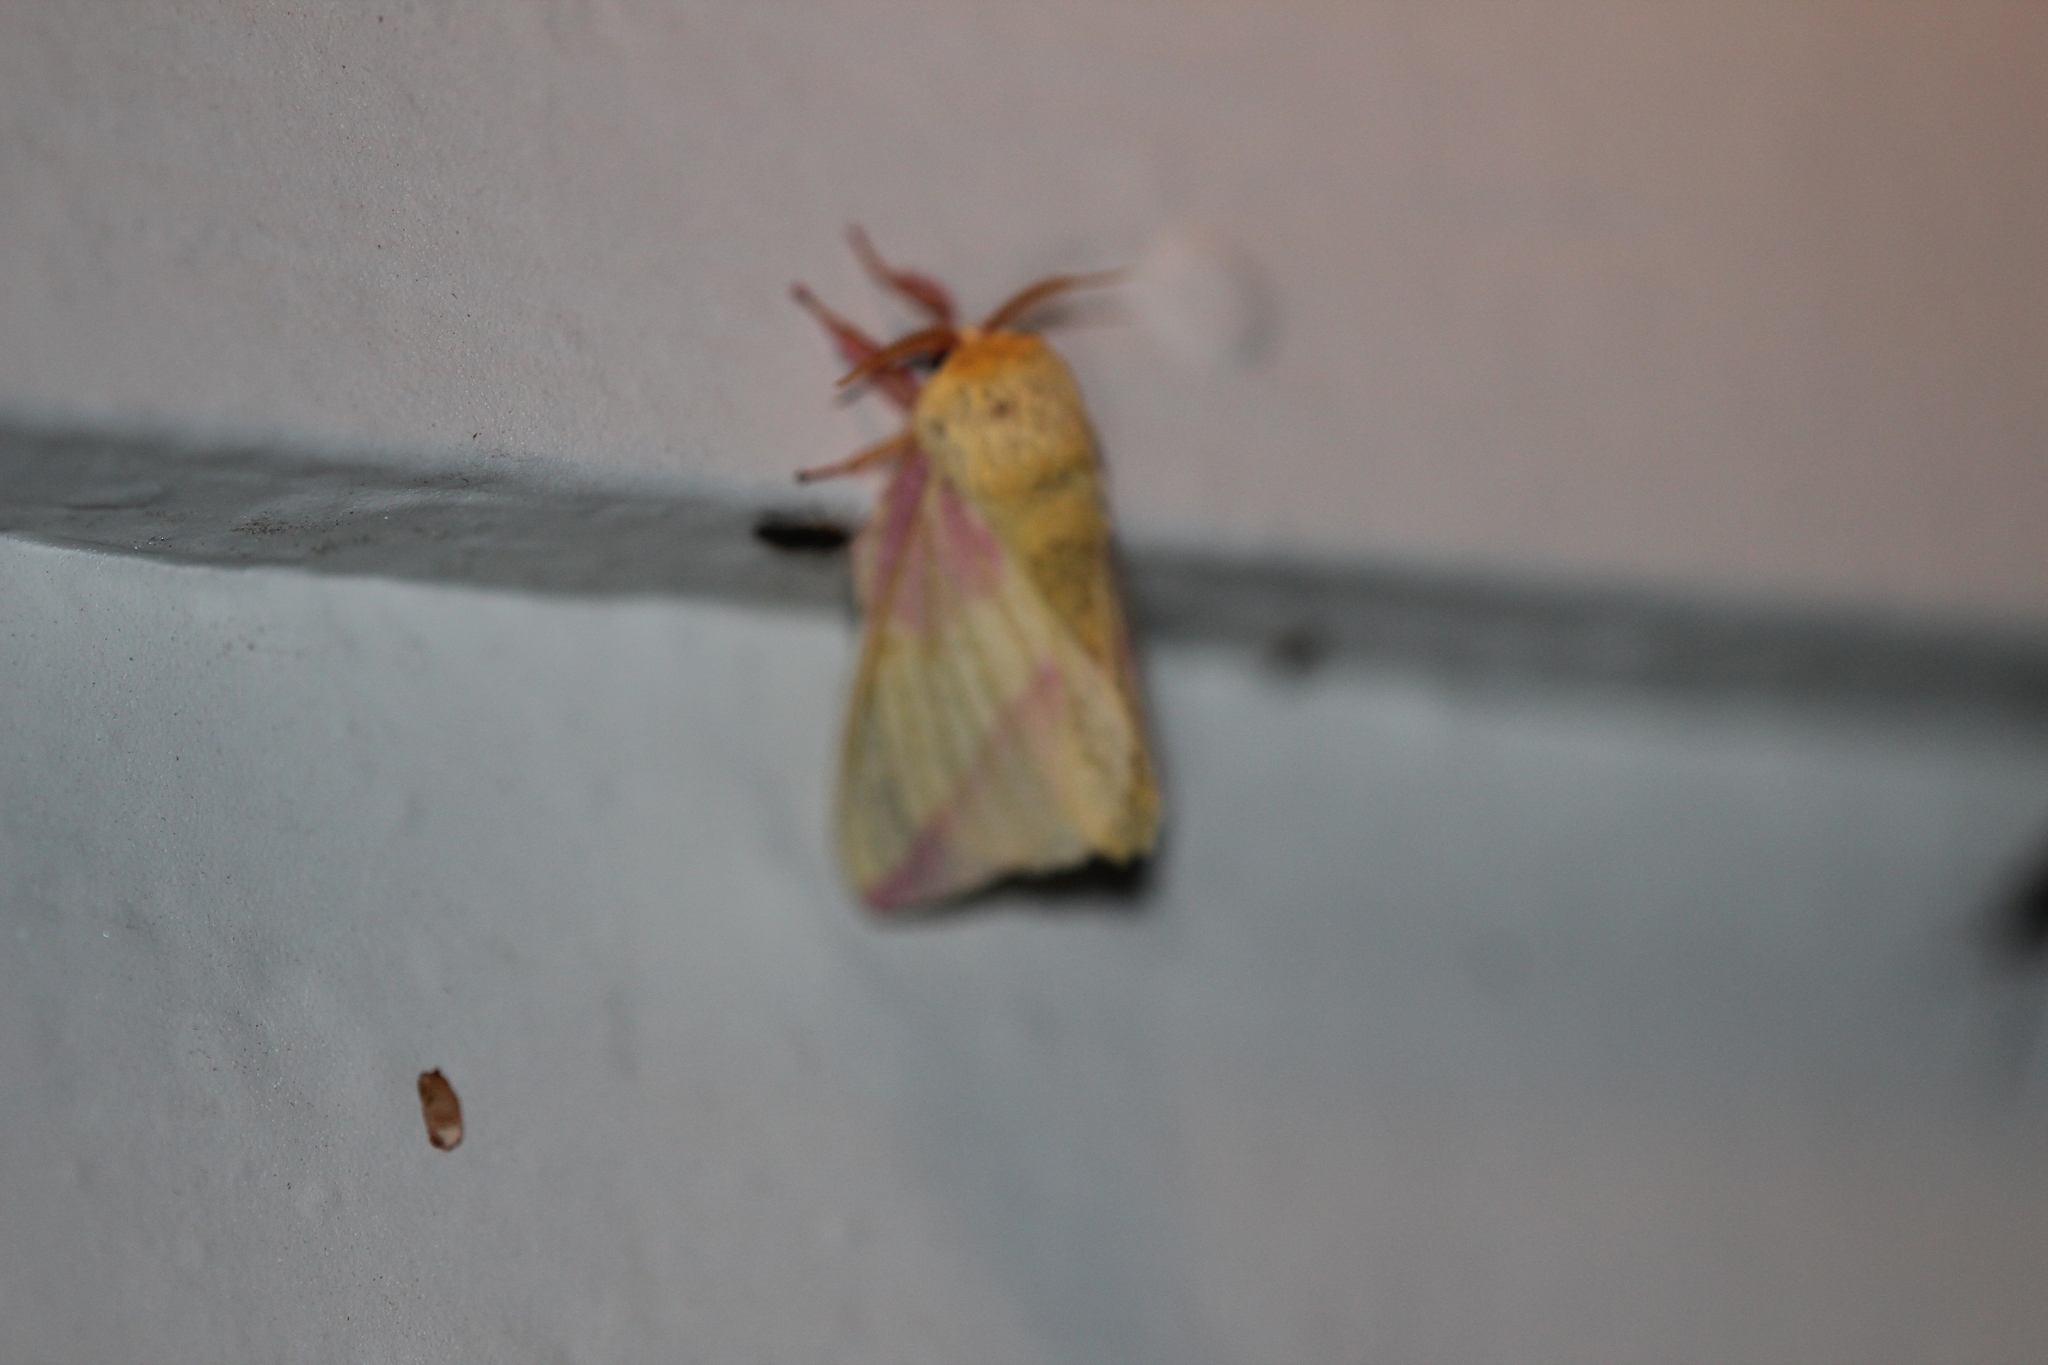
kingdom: Animalia
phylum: Arthropoda
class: Insecta
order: Lepidoptera
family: Saturniidae
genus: Dryocampa
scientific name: Dryocampa rubicunda
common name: Rosy maple moth
